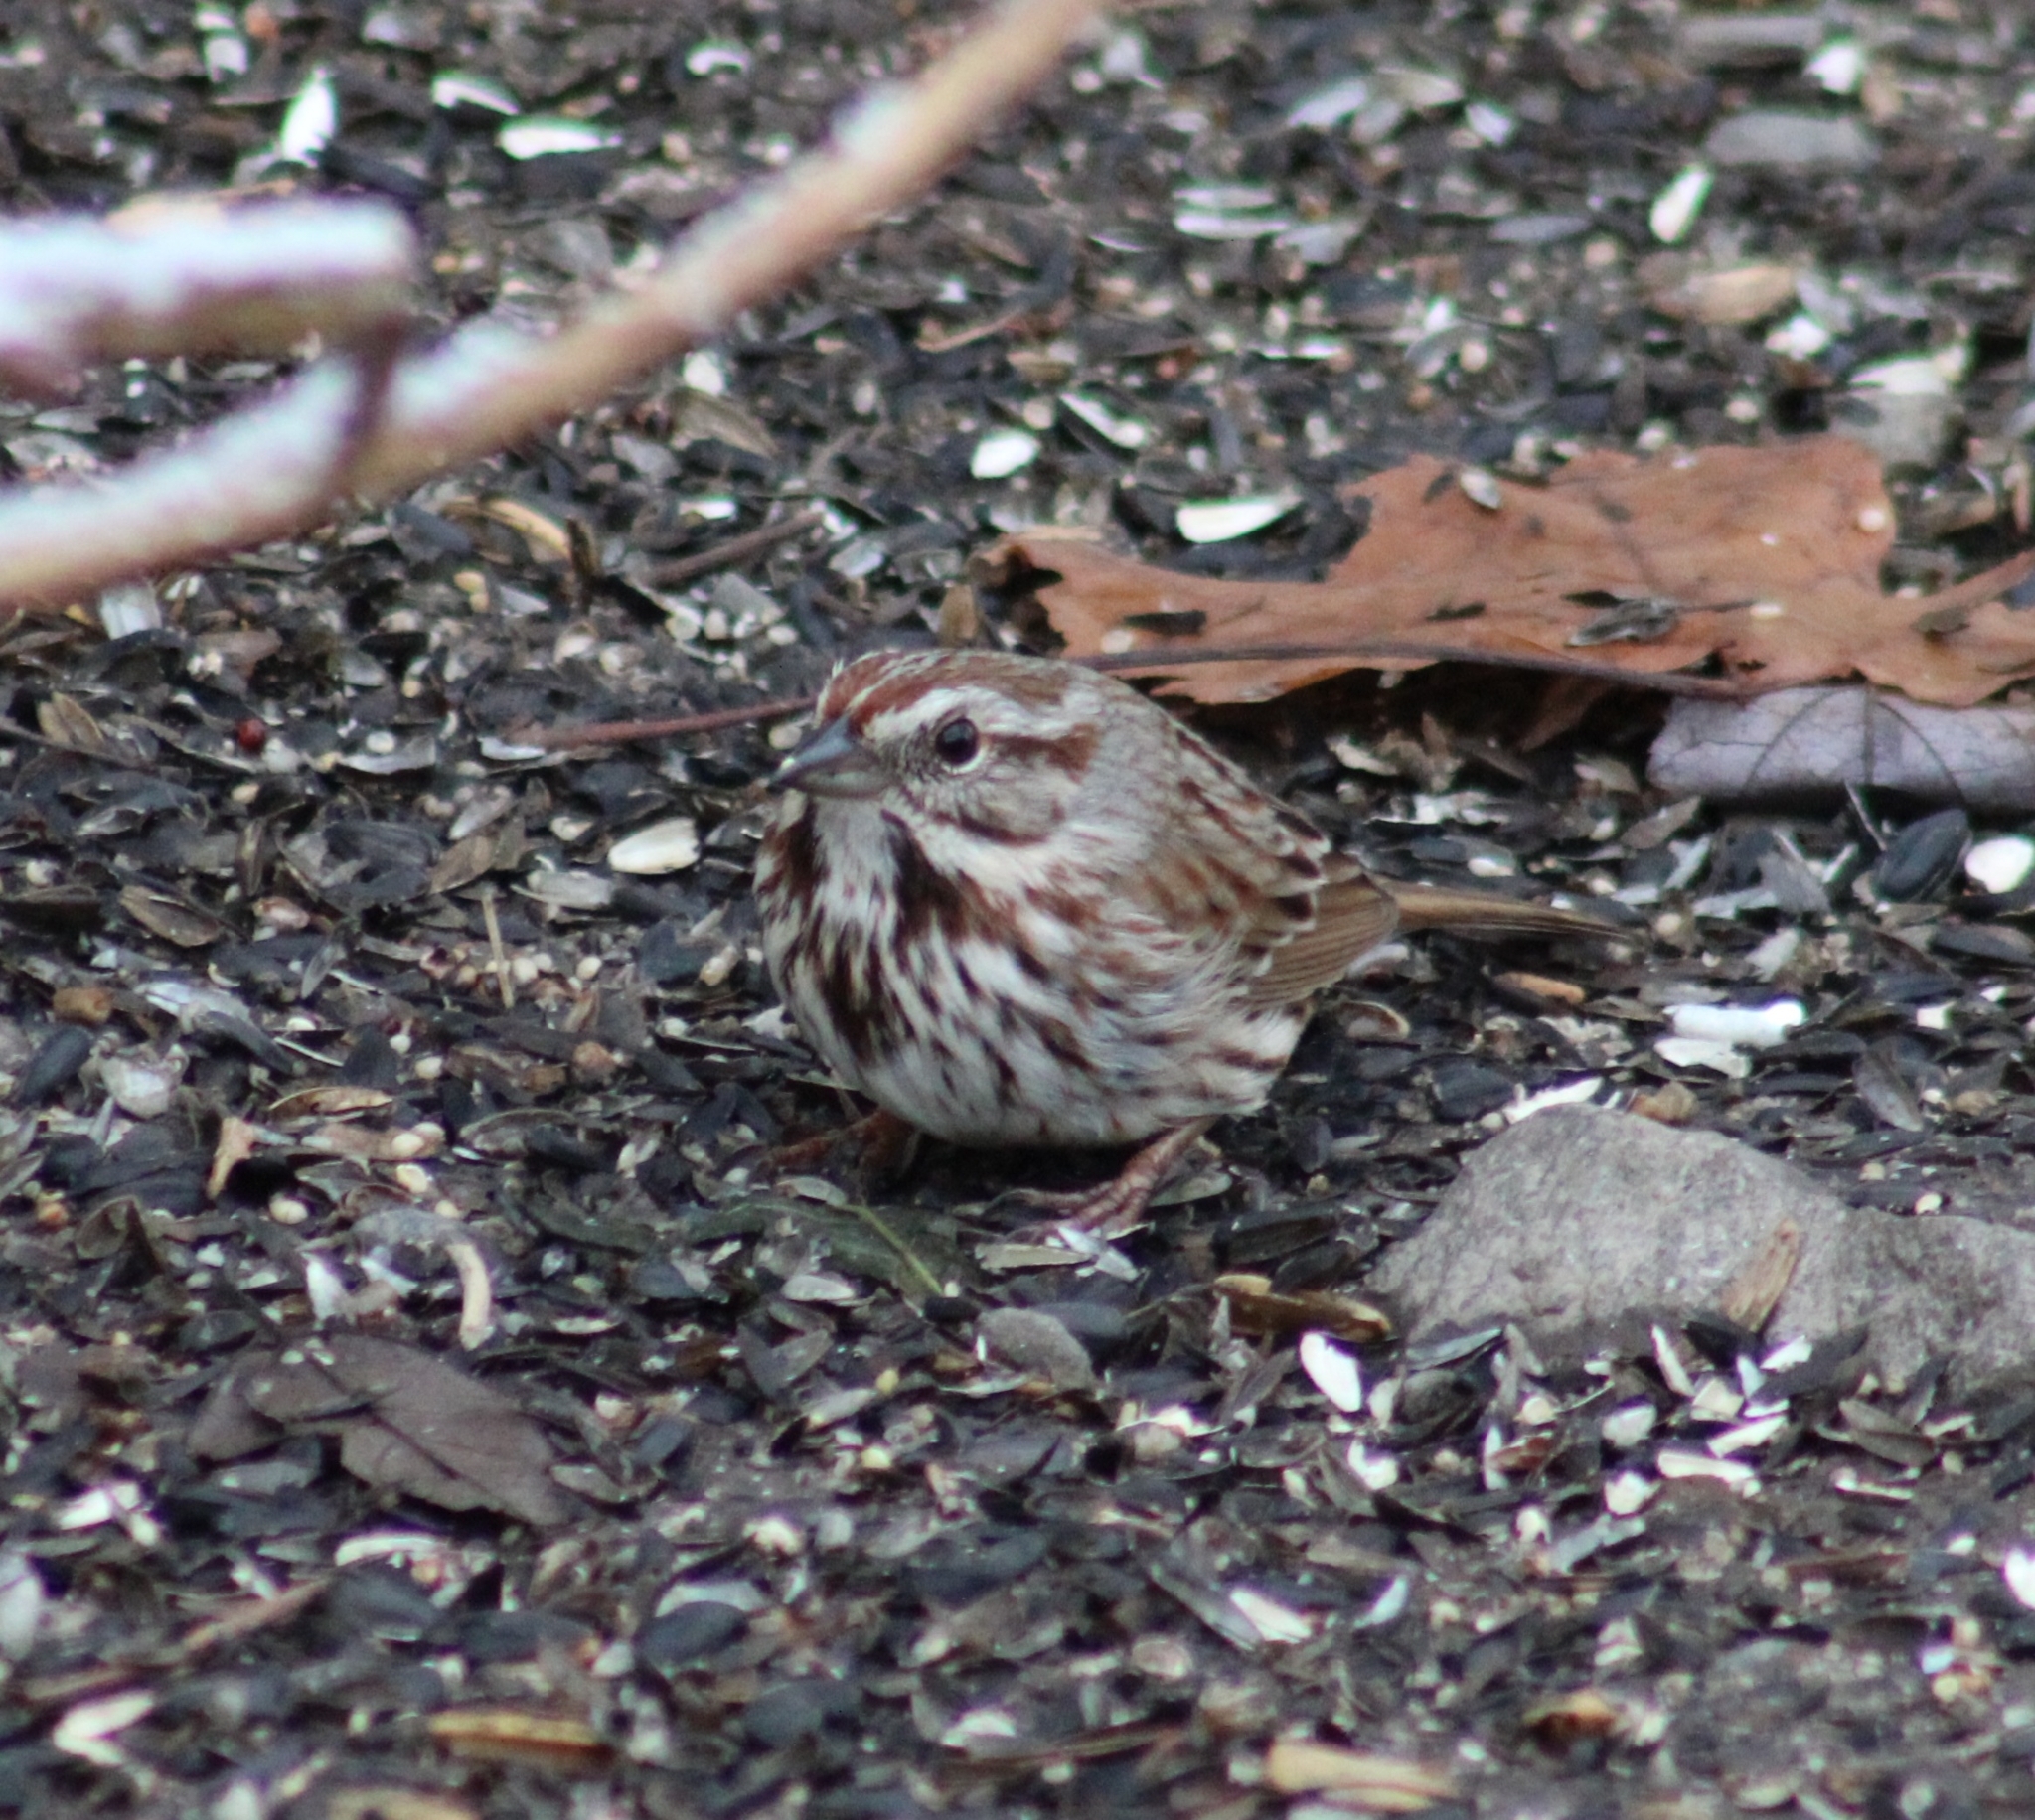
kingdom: Animalia
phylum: Chordata
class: Aves
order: Passeriformes
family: Passerellidae
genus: Melospiza
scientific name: Melospiza melodia
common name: Song sparrow
